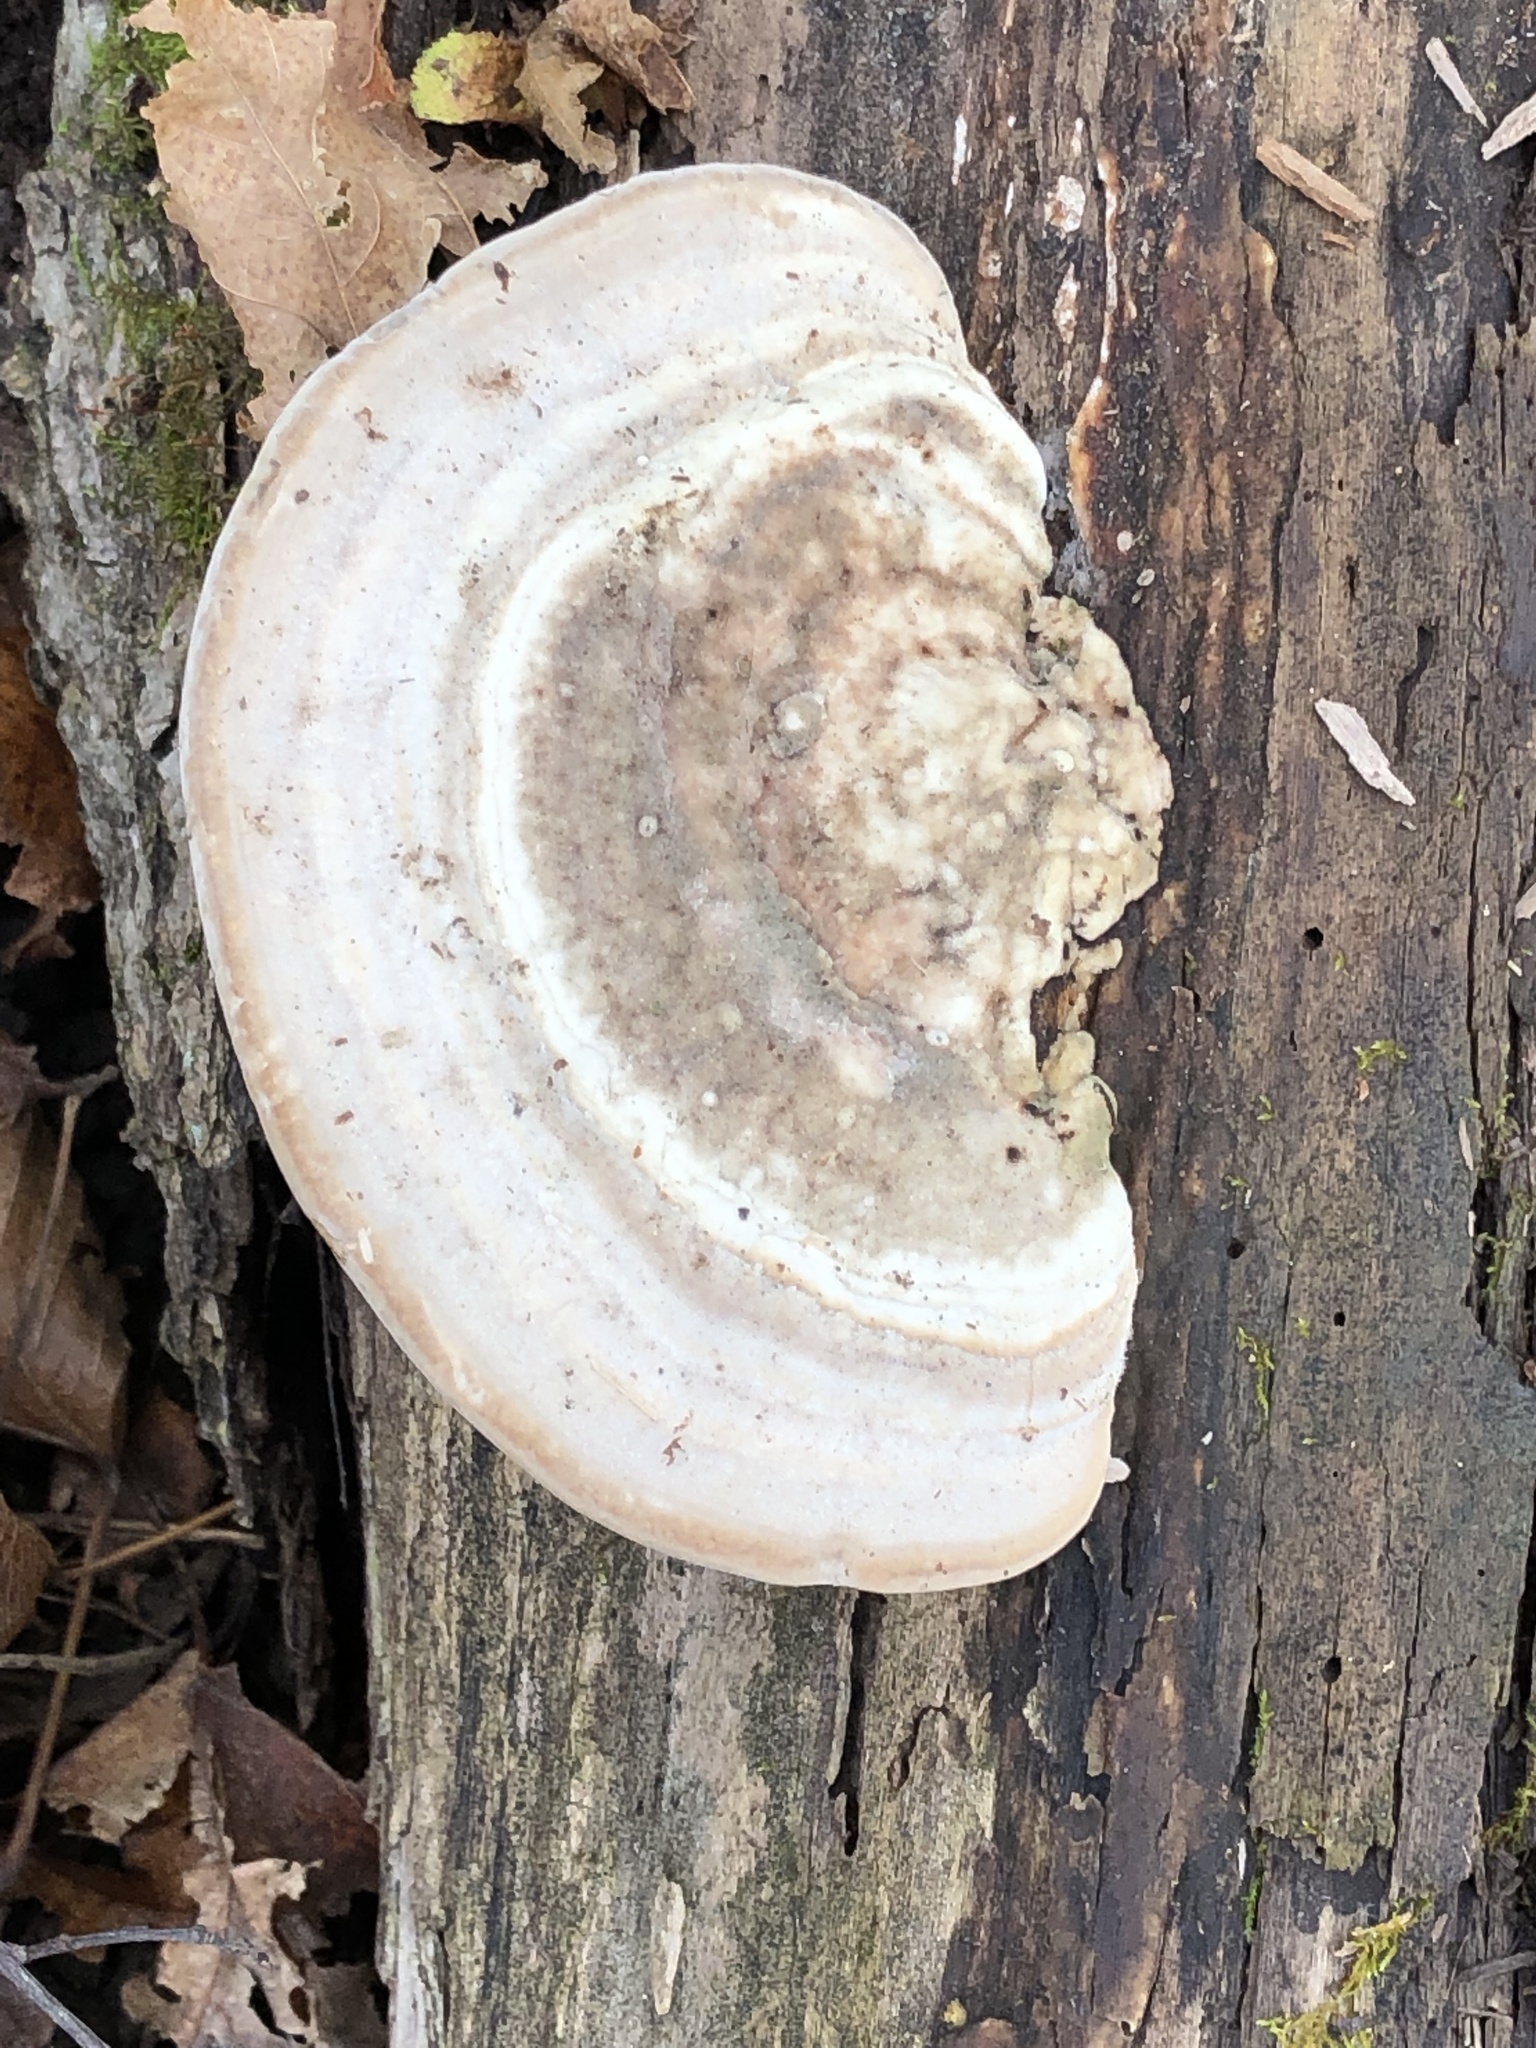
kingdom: Fungi
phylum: Basidiomycota
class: Agaricomycetes
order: Polyporales
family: Polyporaceae
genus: Trametes
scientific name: Trametes gibbosa
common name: Lumpy bracket
